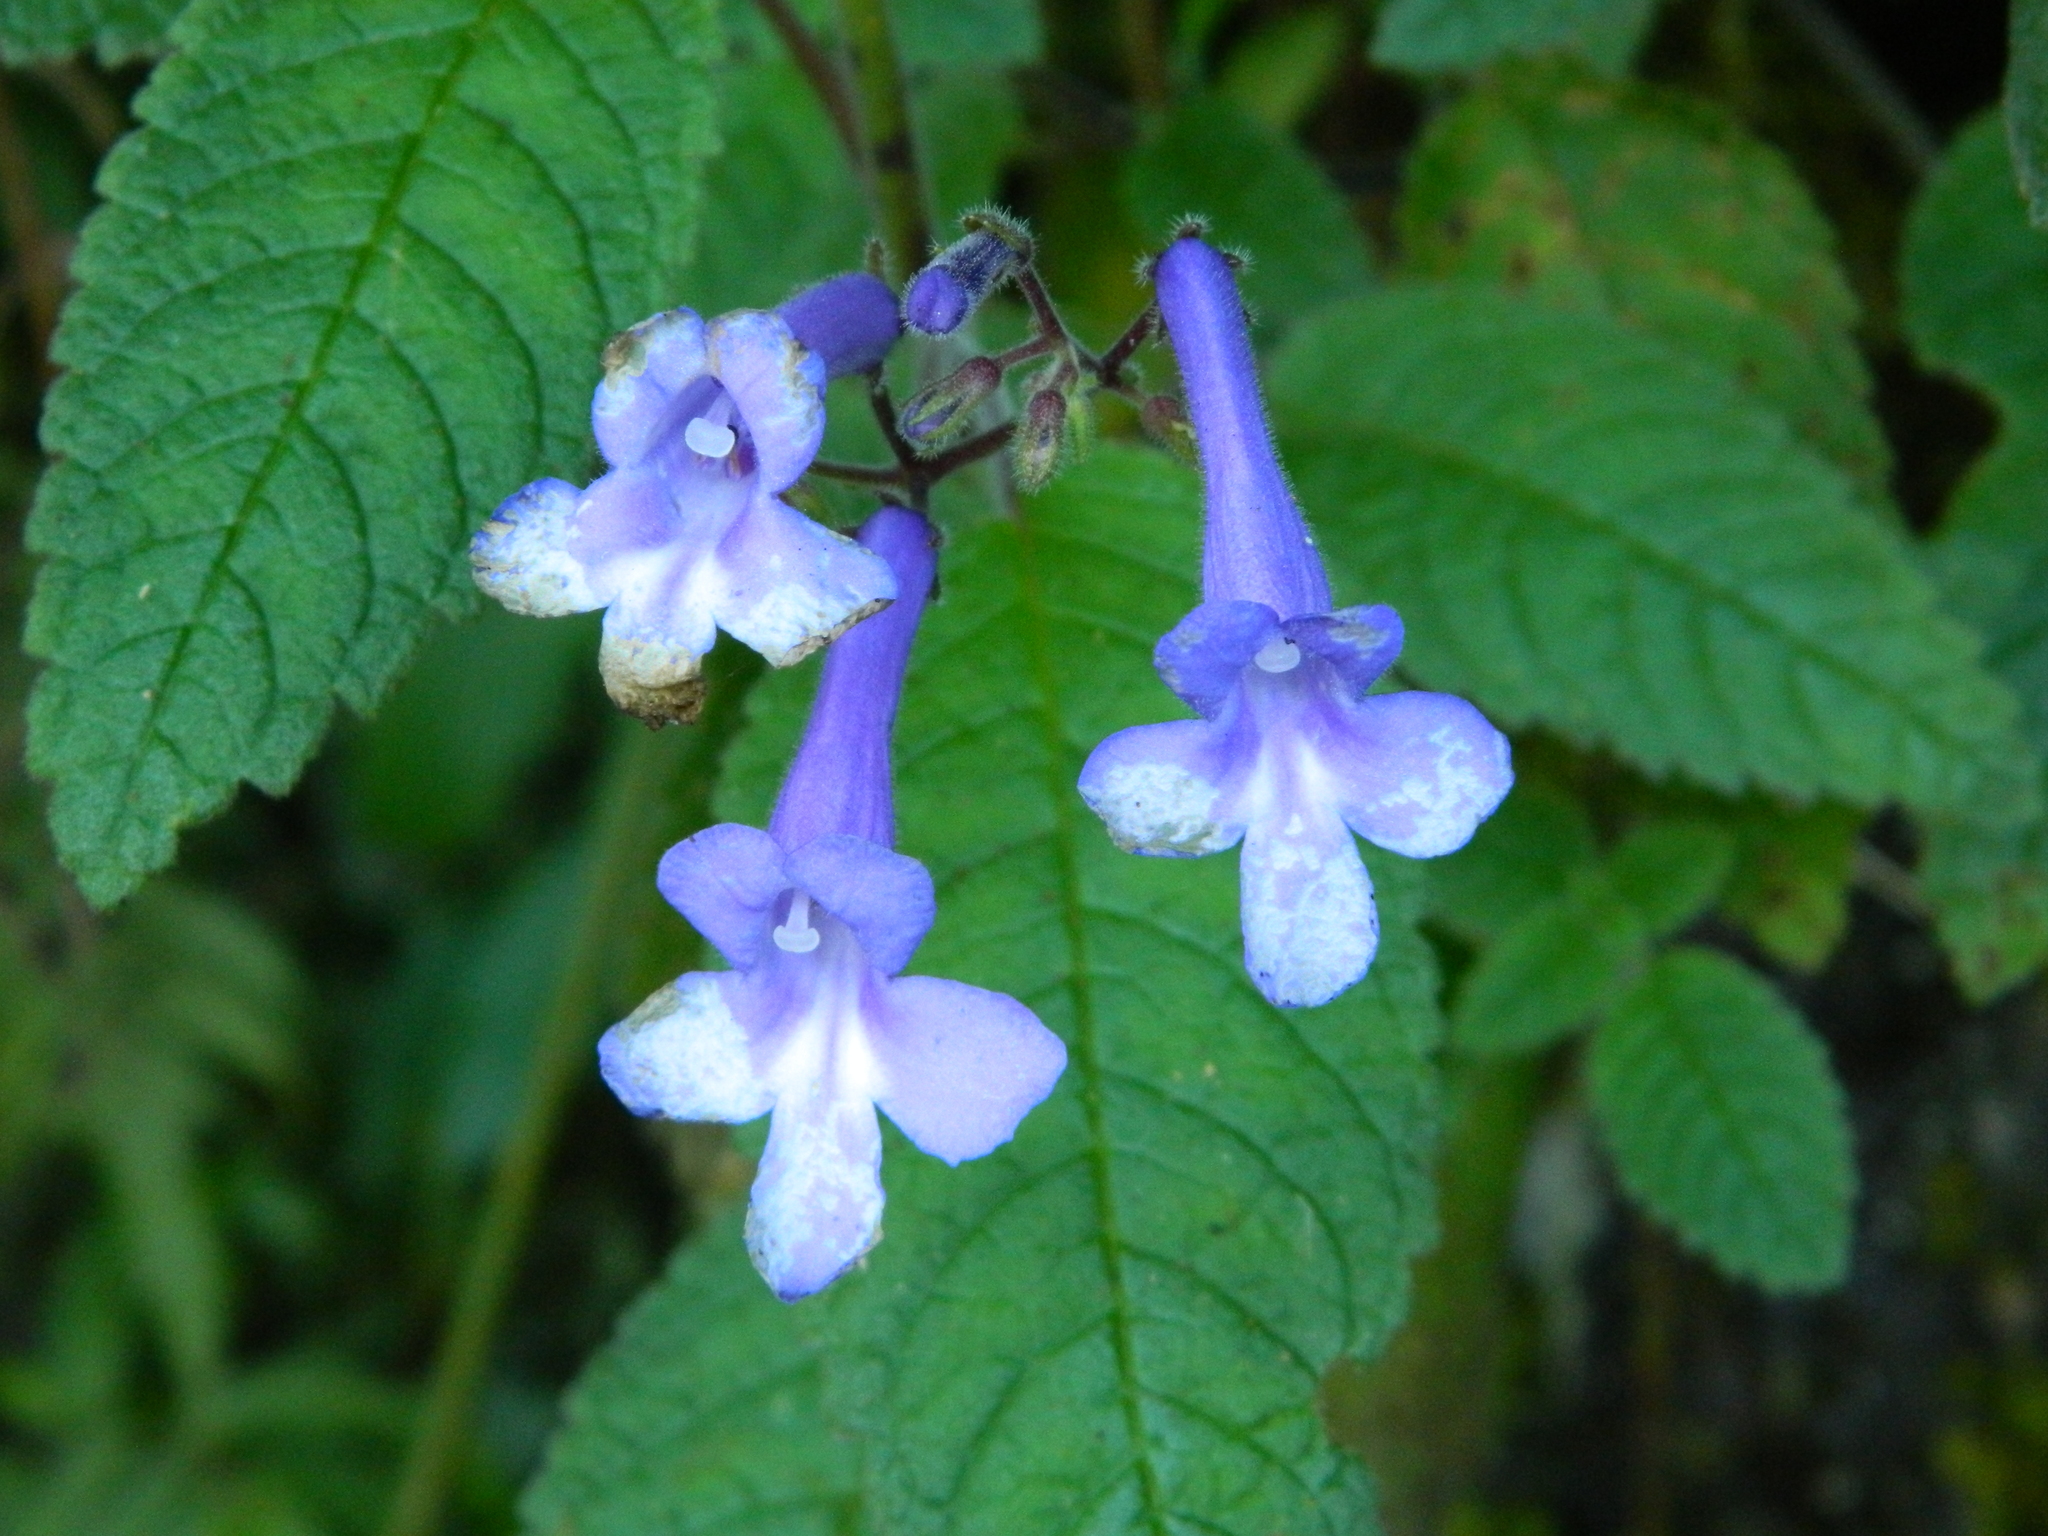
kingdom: Plantae
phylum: Tracheophyta
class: Magnoliopsida
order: Lamiales
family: Gesneriaceae
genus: Streptocarpus
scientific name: Streptocarpus hilsenbergii
